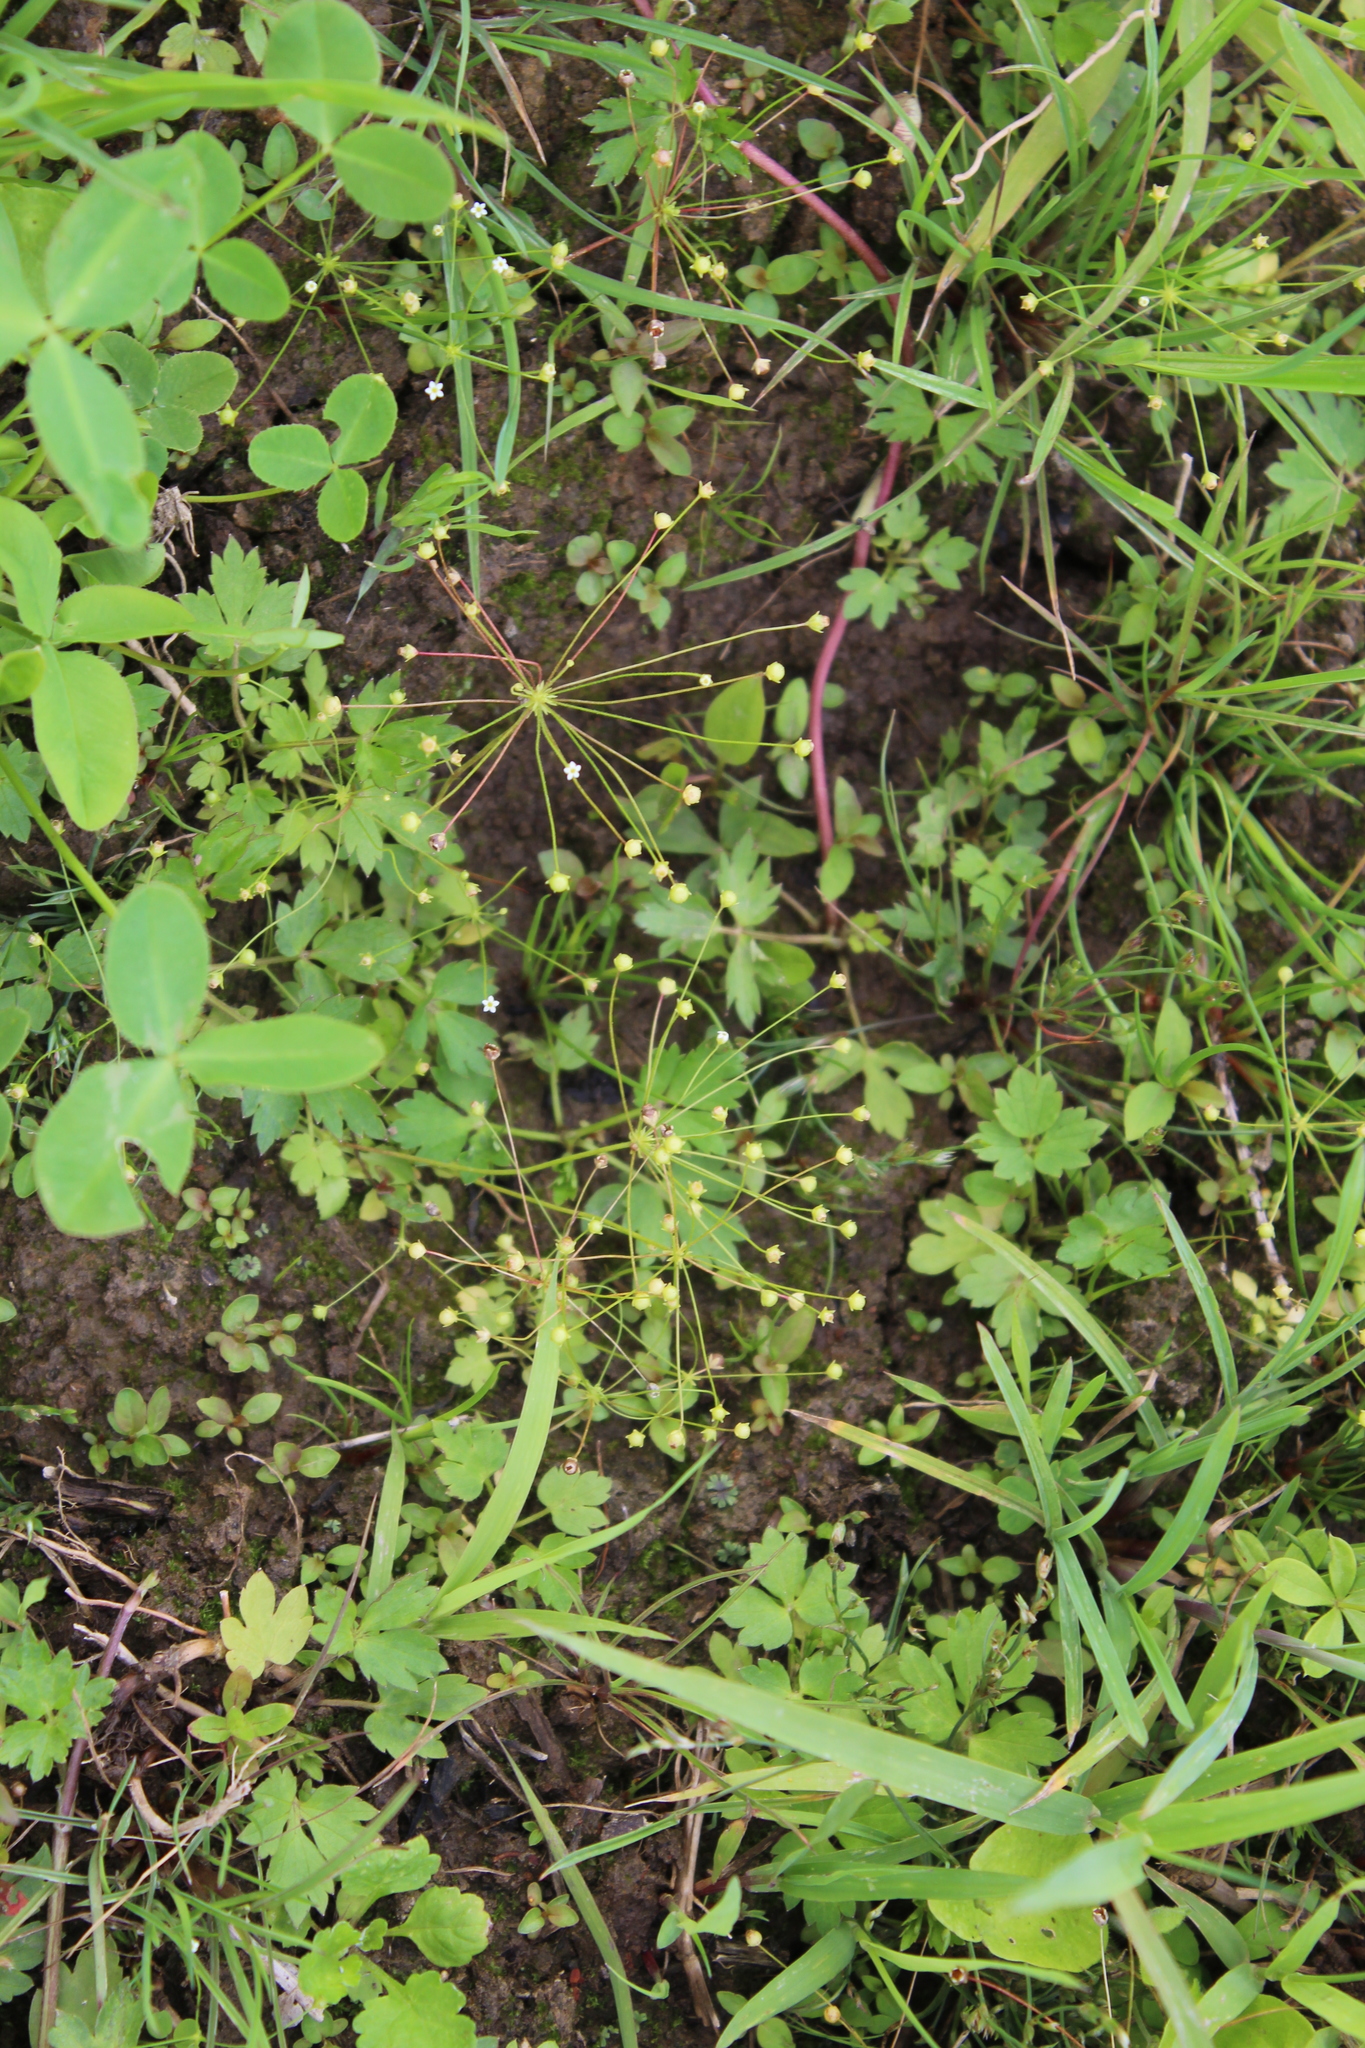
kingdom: Plantae
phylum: Tracheophyta
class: Magnoliopsida
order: Ericales
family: Primulaceae
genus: Androsace
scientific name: Androsace filiformis
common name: Filiform rock jasmine
